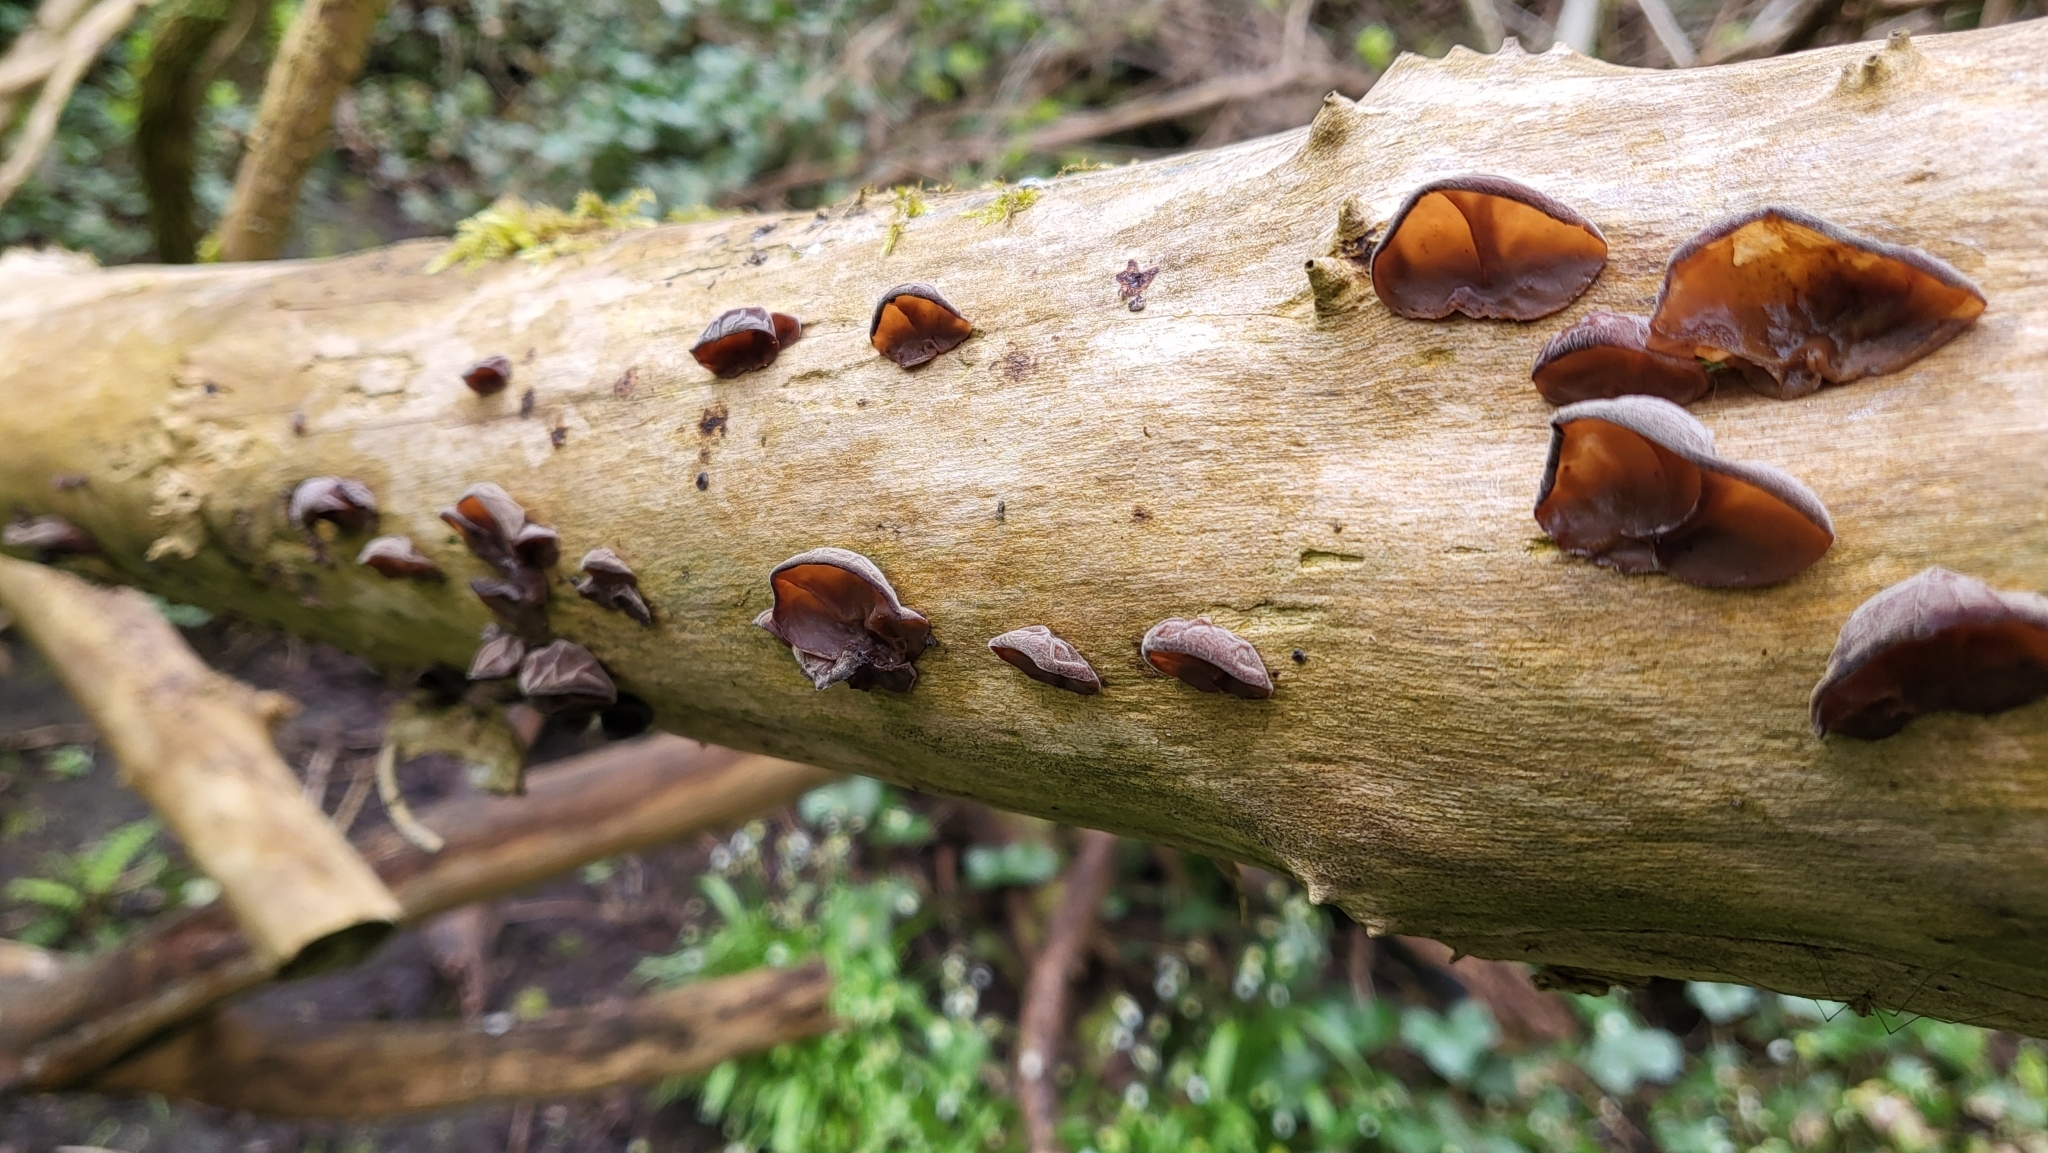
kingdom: Fungi
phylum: Basidiomycota
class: Agaricomycetes
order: Auriculariales
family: Auriculariaceae
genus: Auricularia
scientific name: Auricularia auricula-judae
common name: Jelly ear
